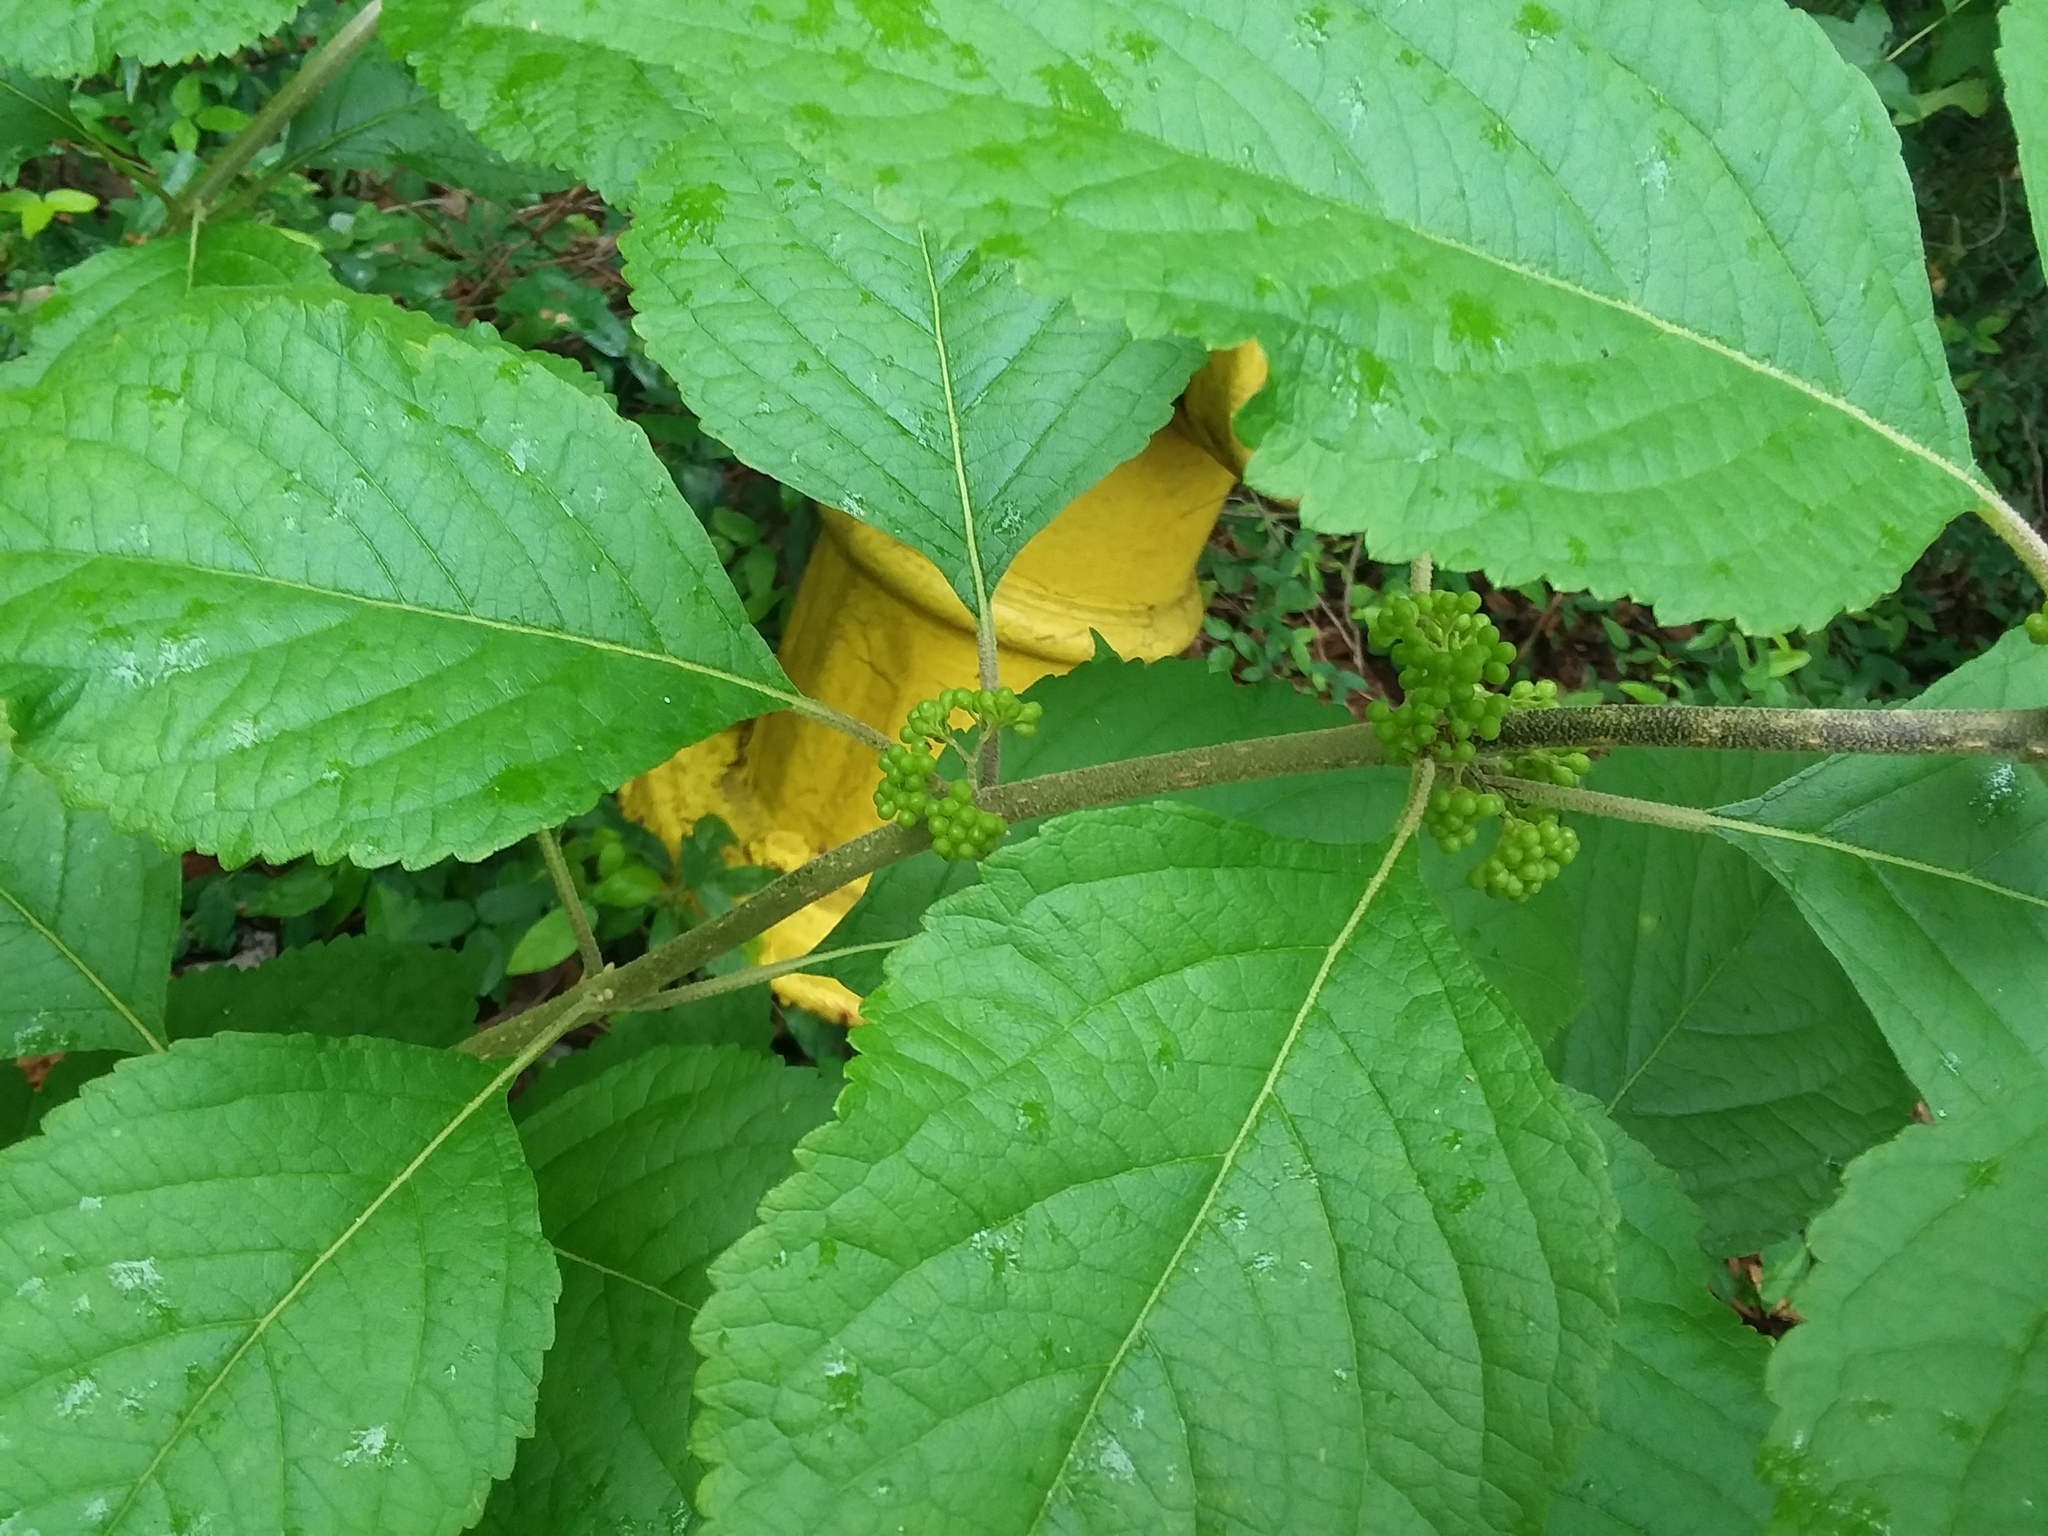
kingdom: Plantae
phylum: Tracheophyta
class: Magnoliopsida
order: Lamiales
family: Lamiaceae
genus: Callicarpa
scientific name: Callicarpa americana
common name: American beautyberry
